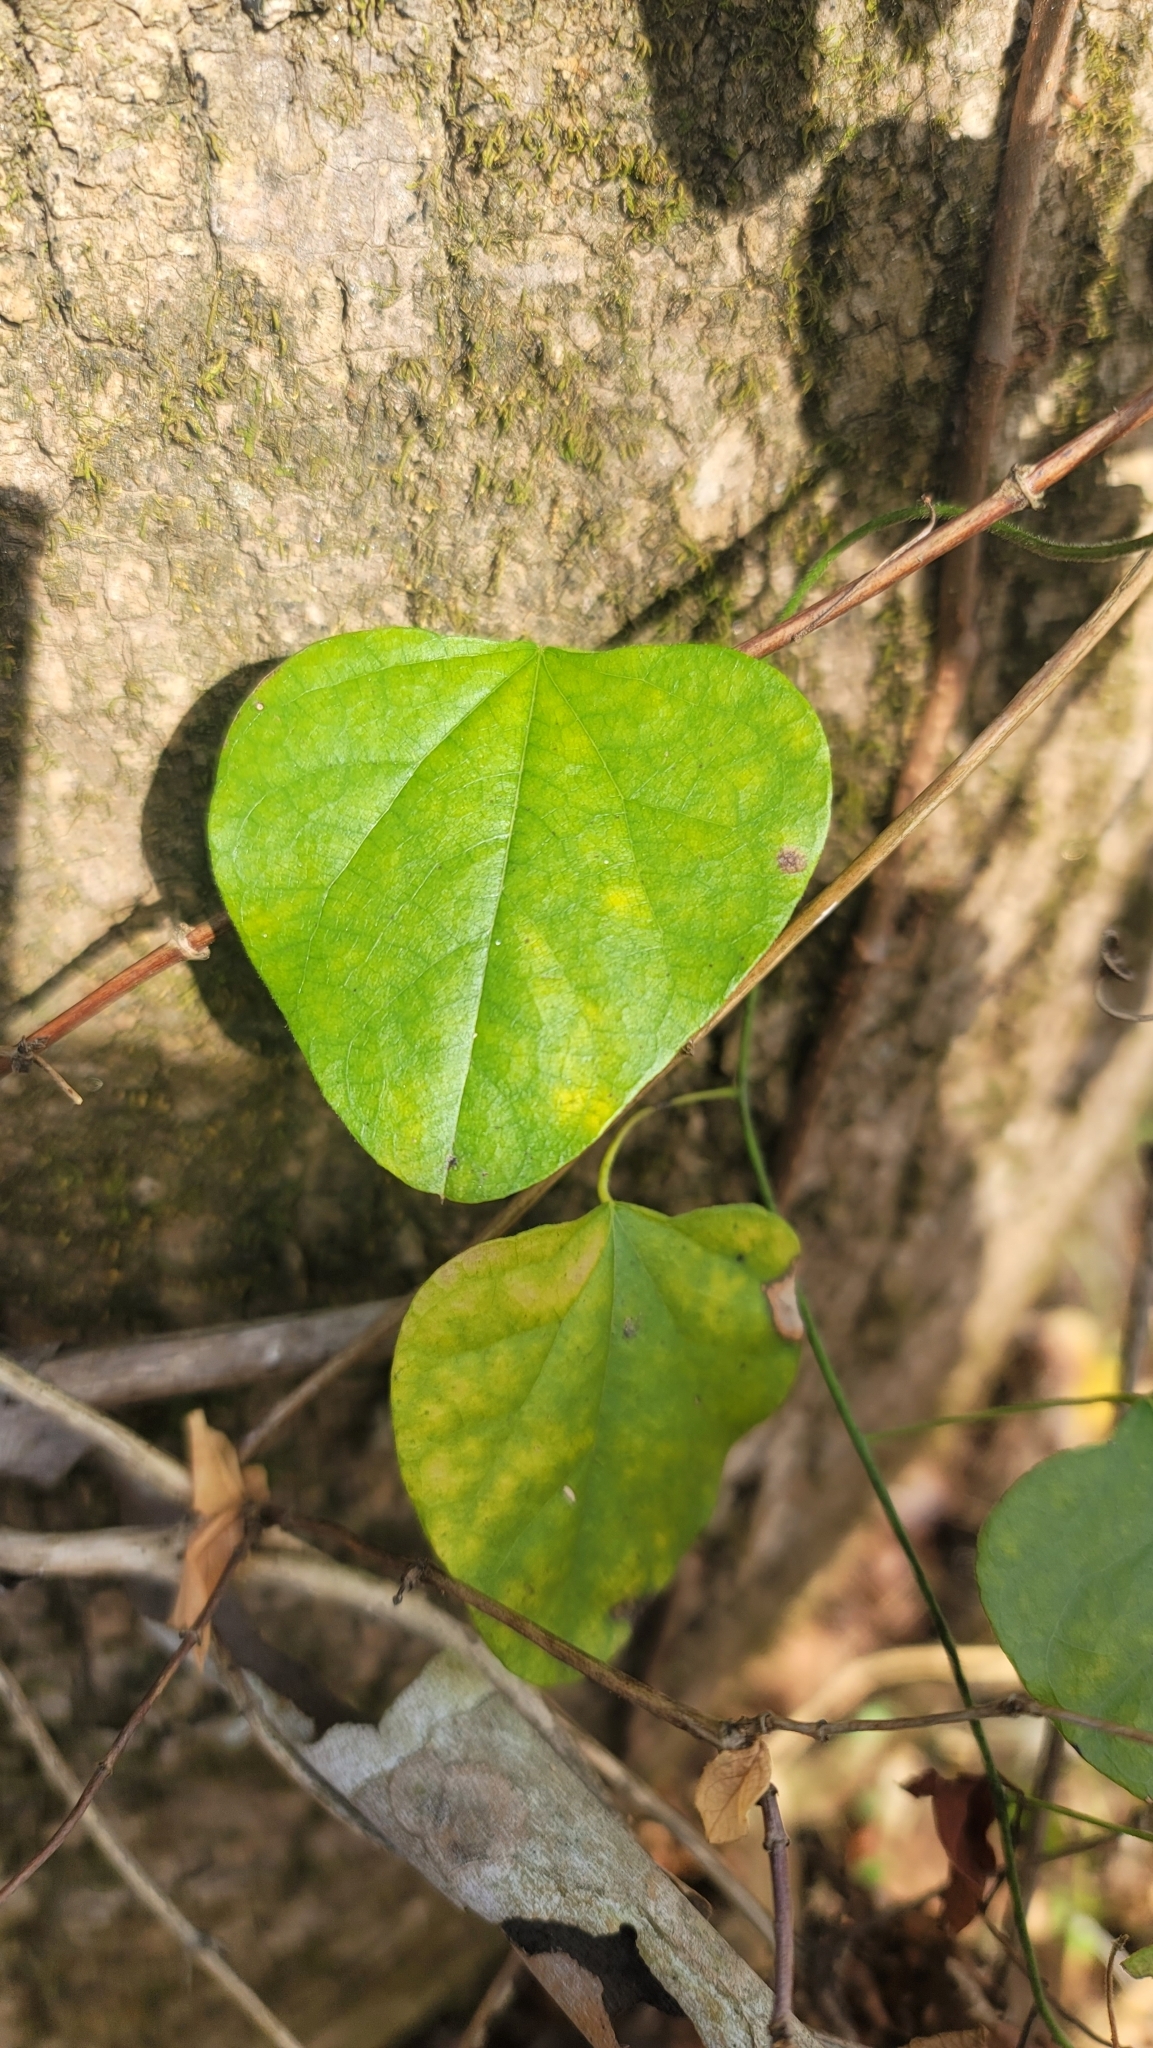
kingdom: Plantae
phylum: Tracheophyta
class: Magnoliopsida
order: Ranunculales
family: Menispermaceae
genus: Cocculus
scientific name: Cocculus carolinus
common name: Carolina moonseed
